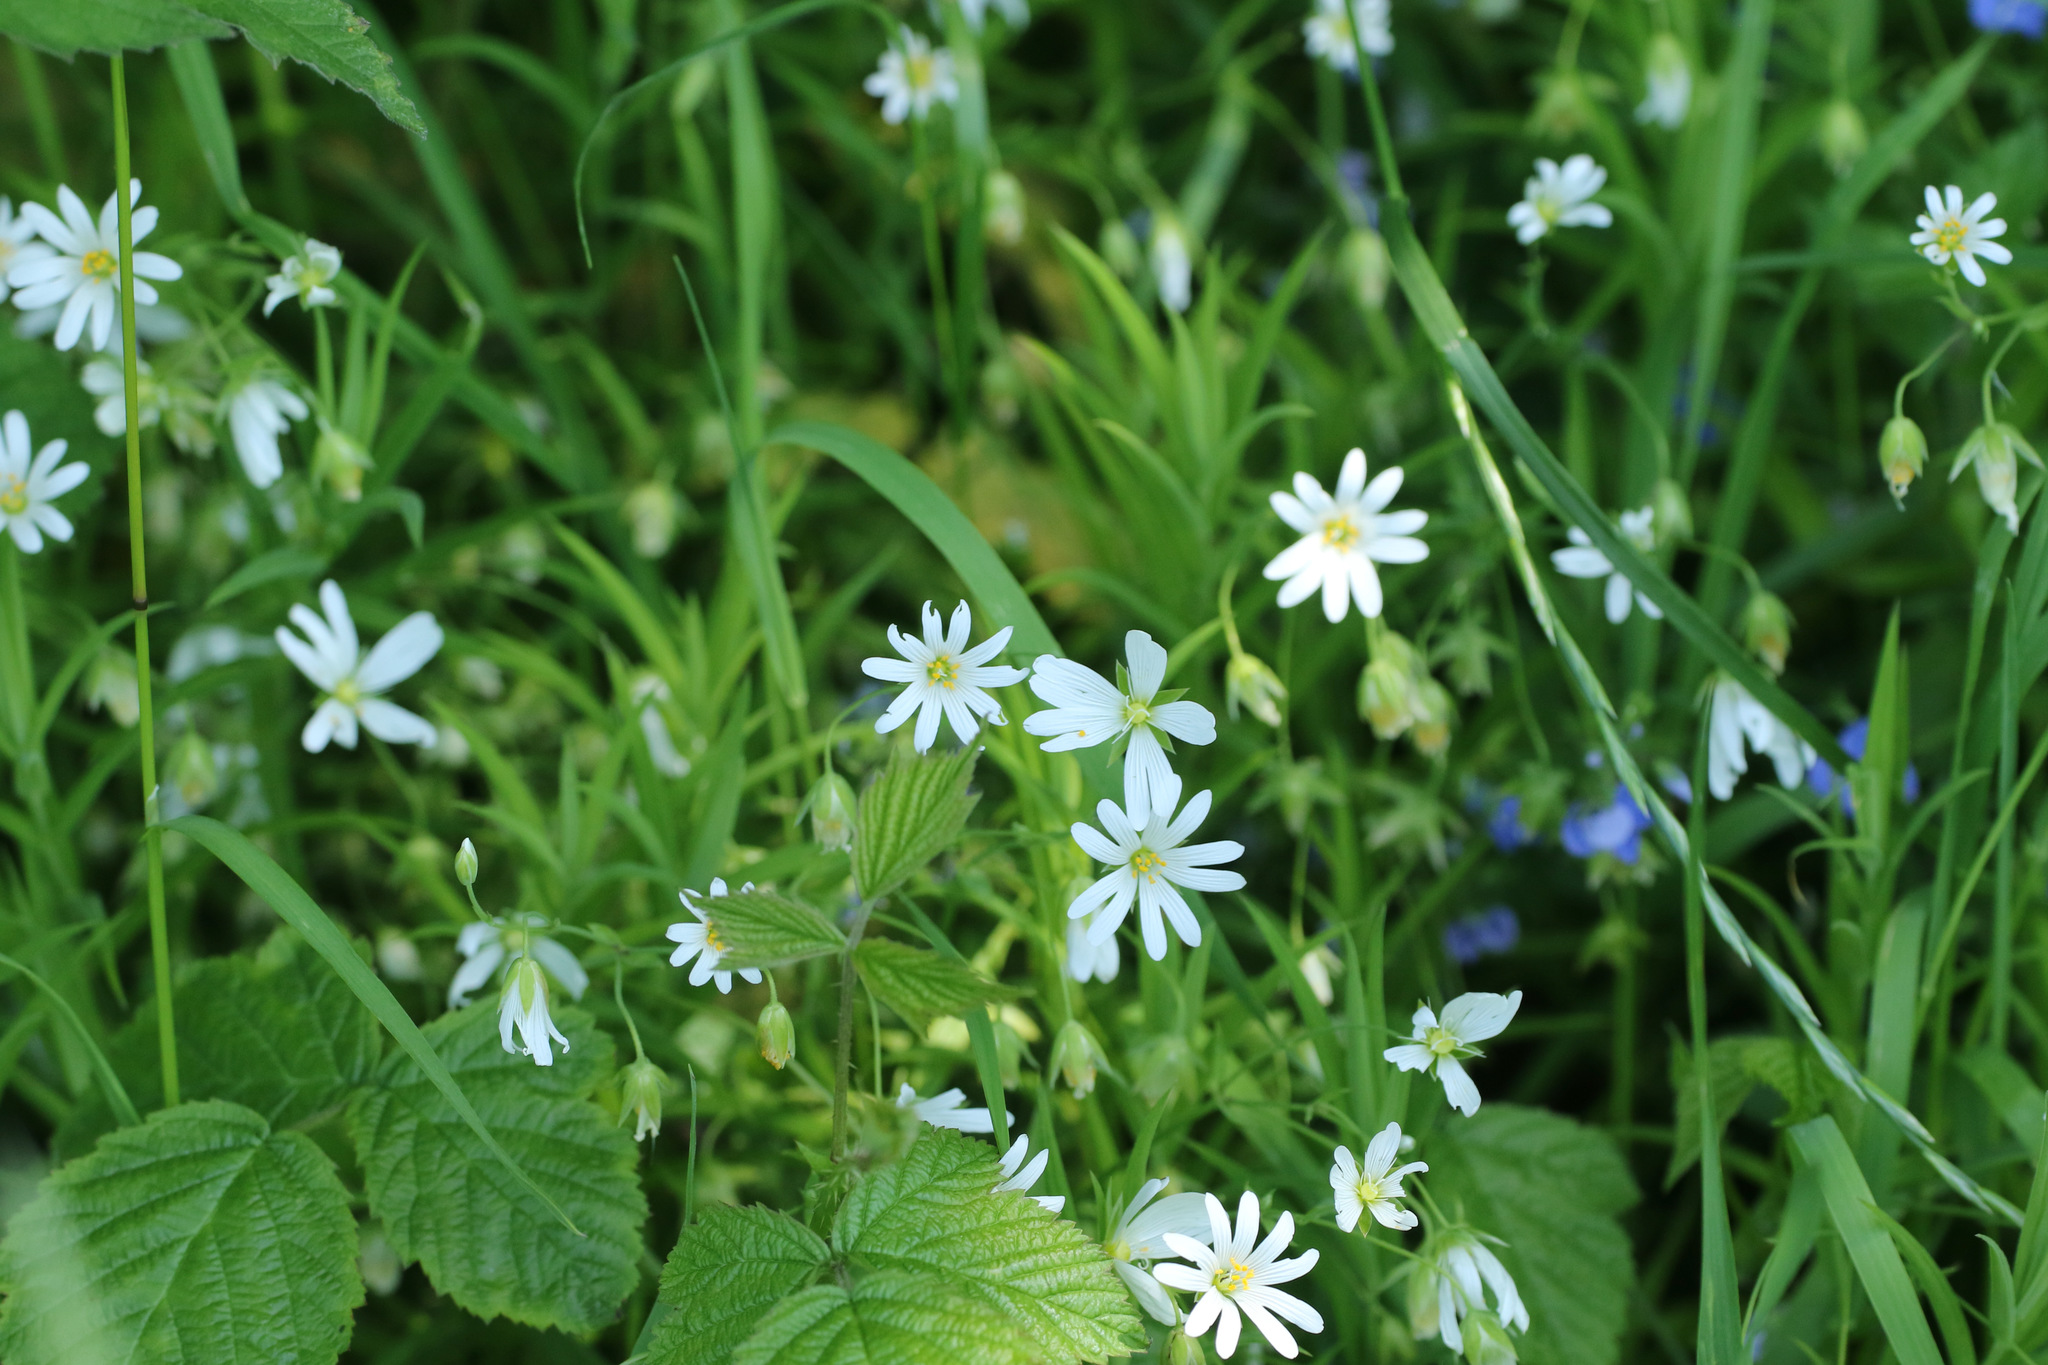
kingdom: Plantae
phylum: Tracheophyta
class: Magnoliopsida
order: Caryophyllales
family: Caryophyllaceae
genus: Rabelera
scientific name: Rabelera holostea
